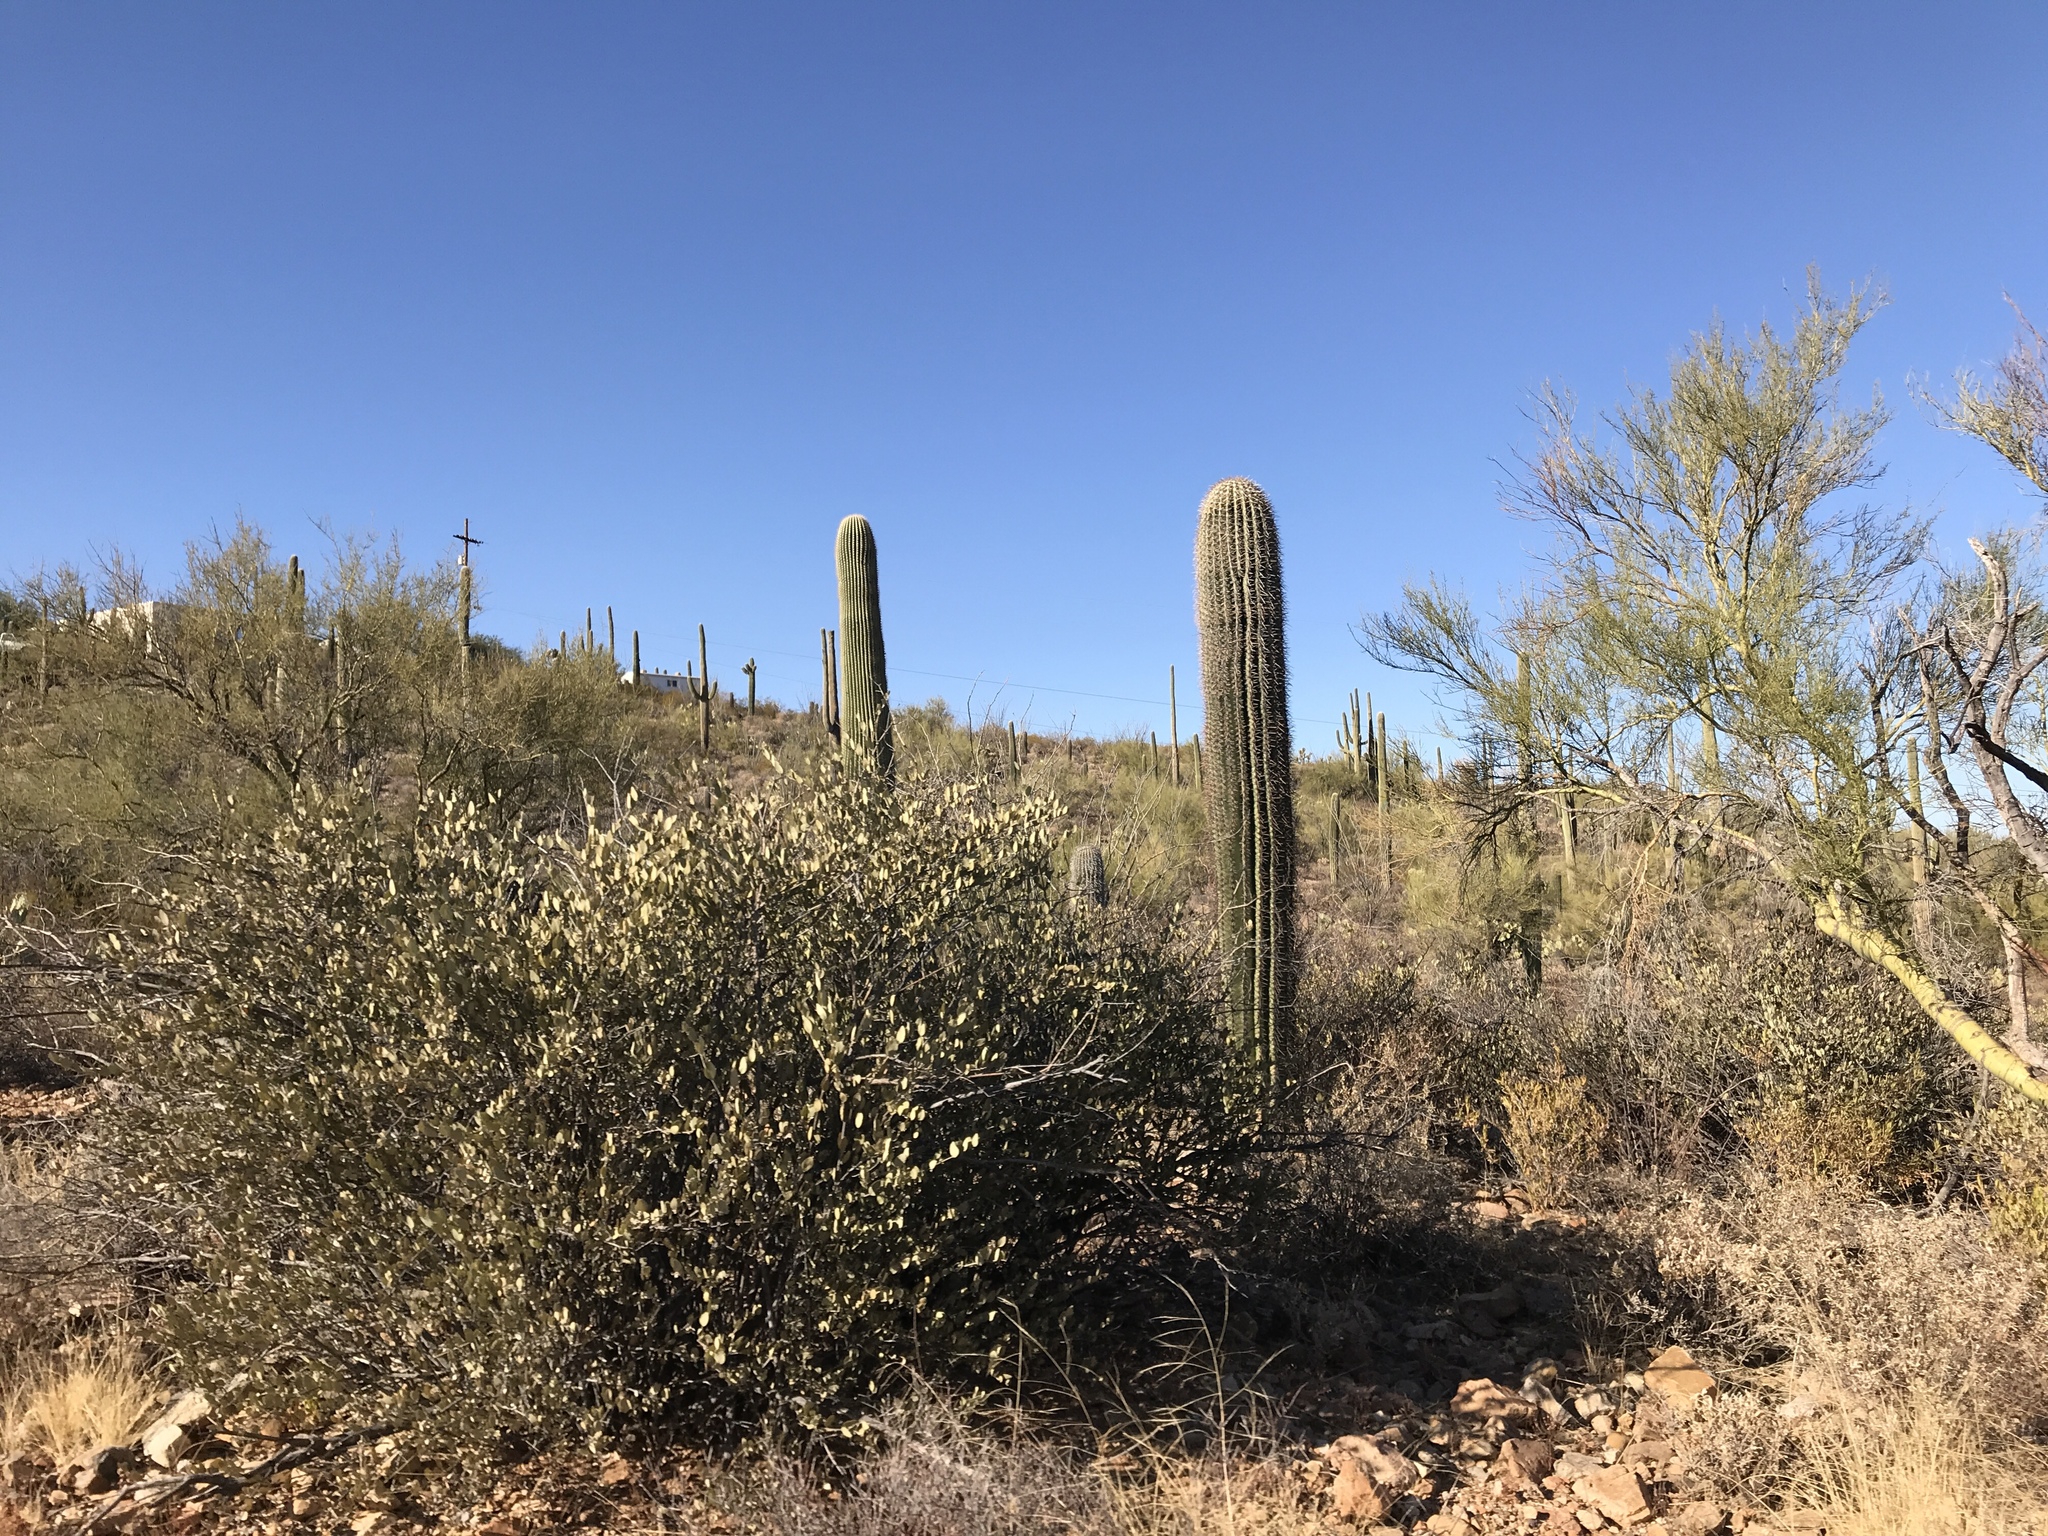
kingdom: Plantae
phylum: Tracheophyta
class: Magnoliopsida
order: Caryophyllales
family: Cactaceae
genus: Carnegiea
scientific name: Carnegiea gigantea
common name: Saguaro
